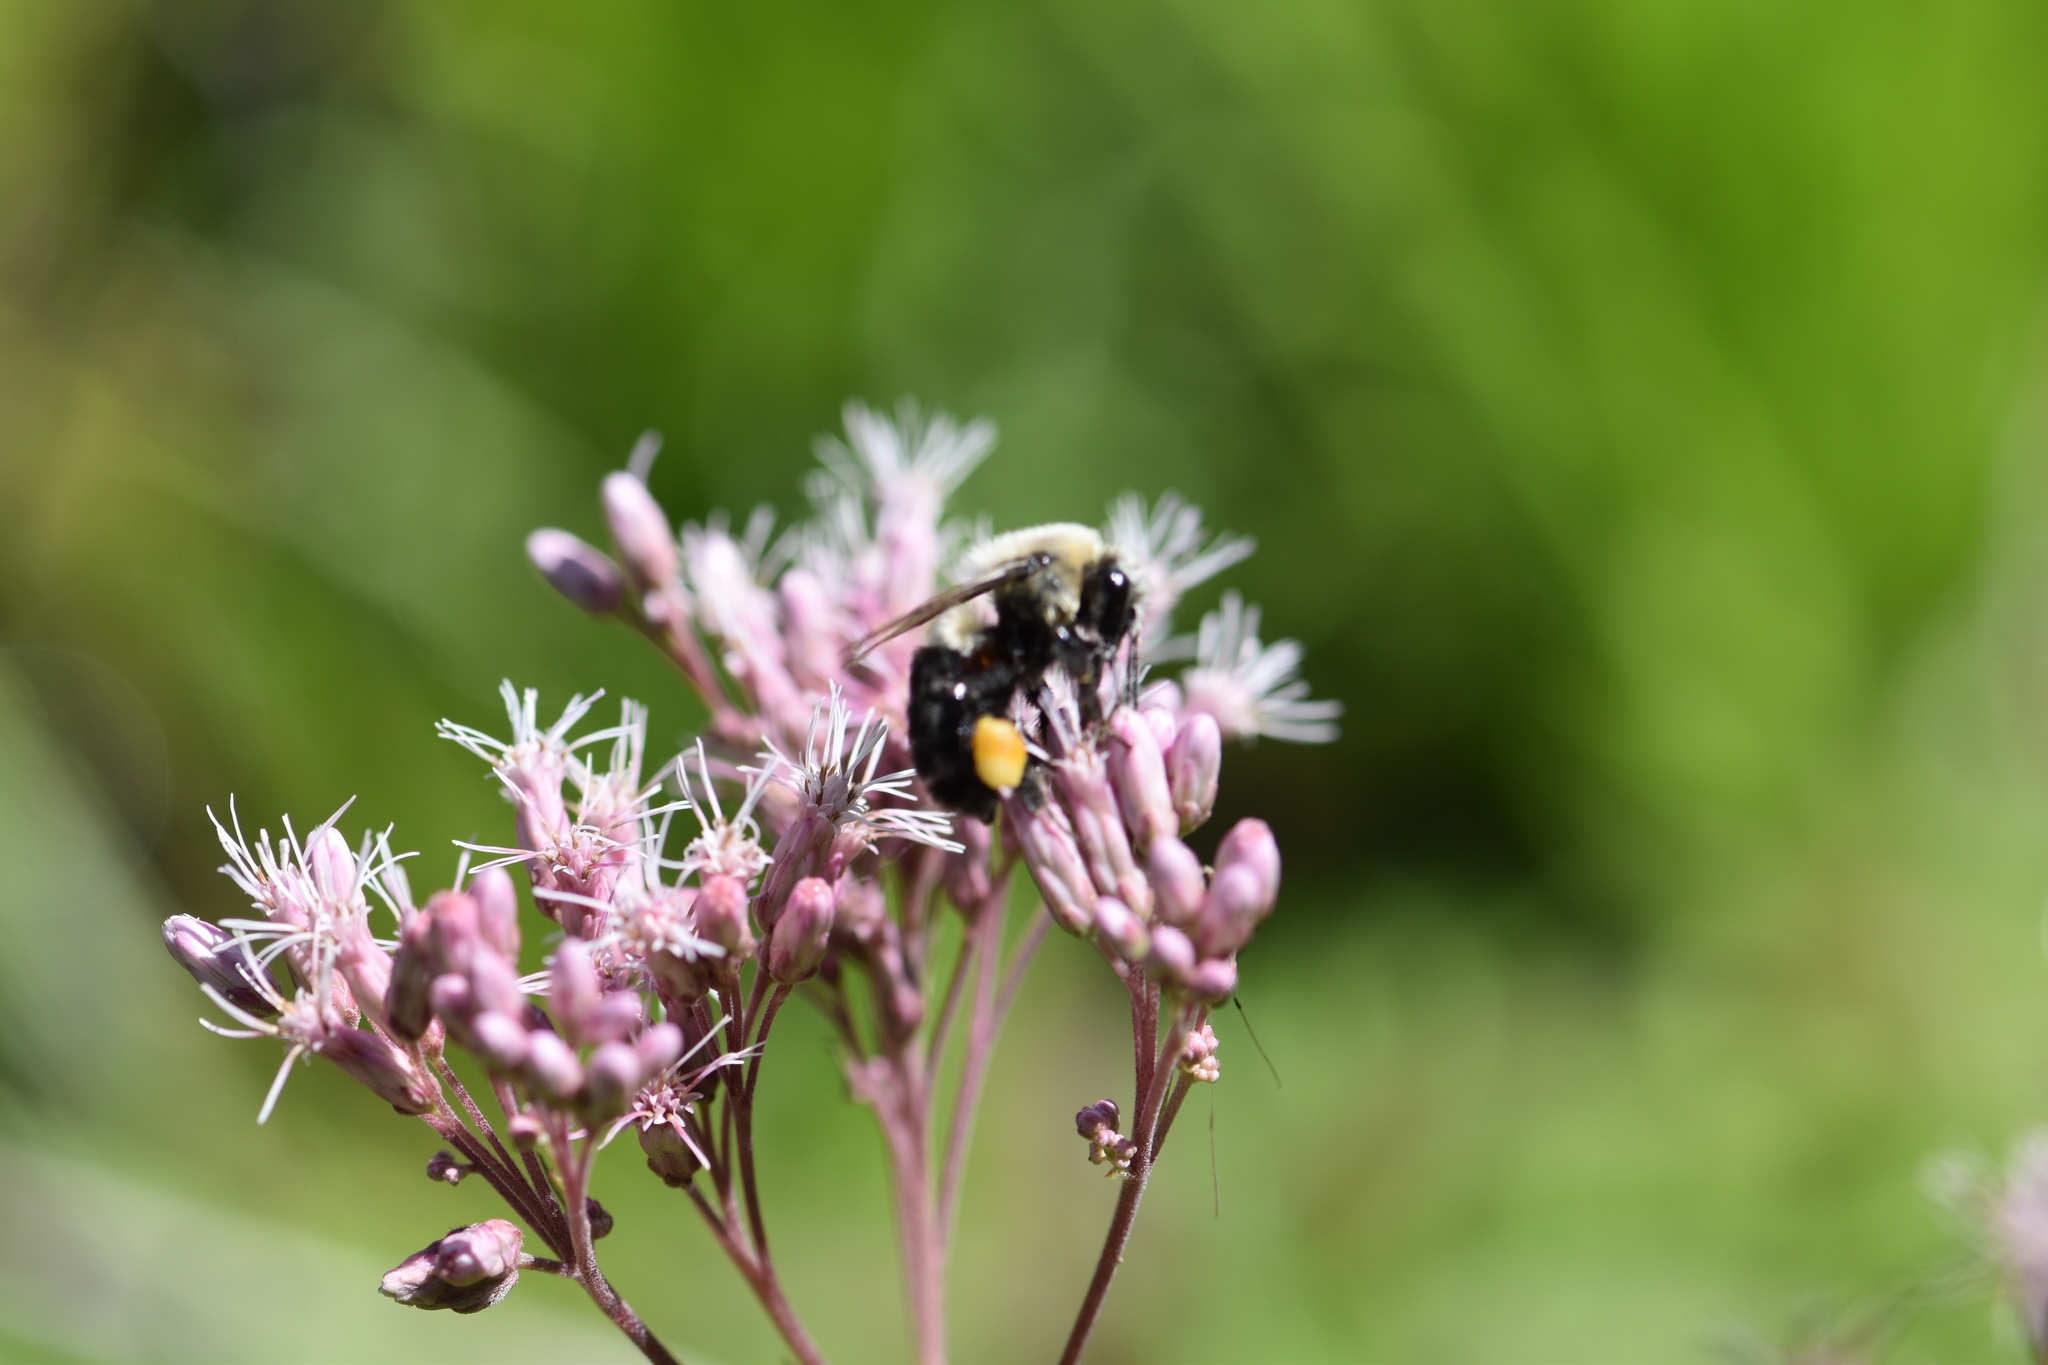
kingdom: Animalia
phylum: Arthropoda
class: Insecta
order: Hymenoptera
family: Apidae
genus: Bombus
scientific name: Bombus impatiens
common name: Common eastern bumble bee
